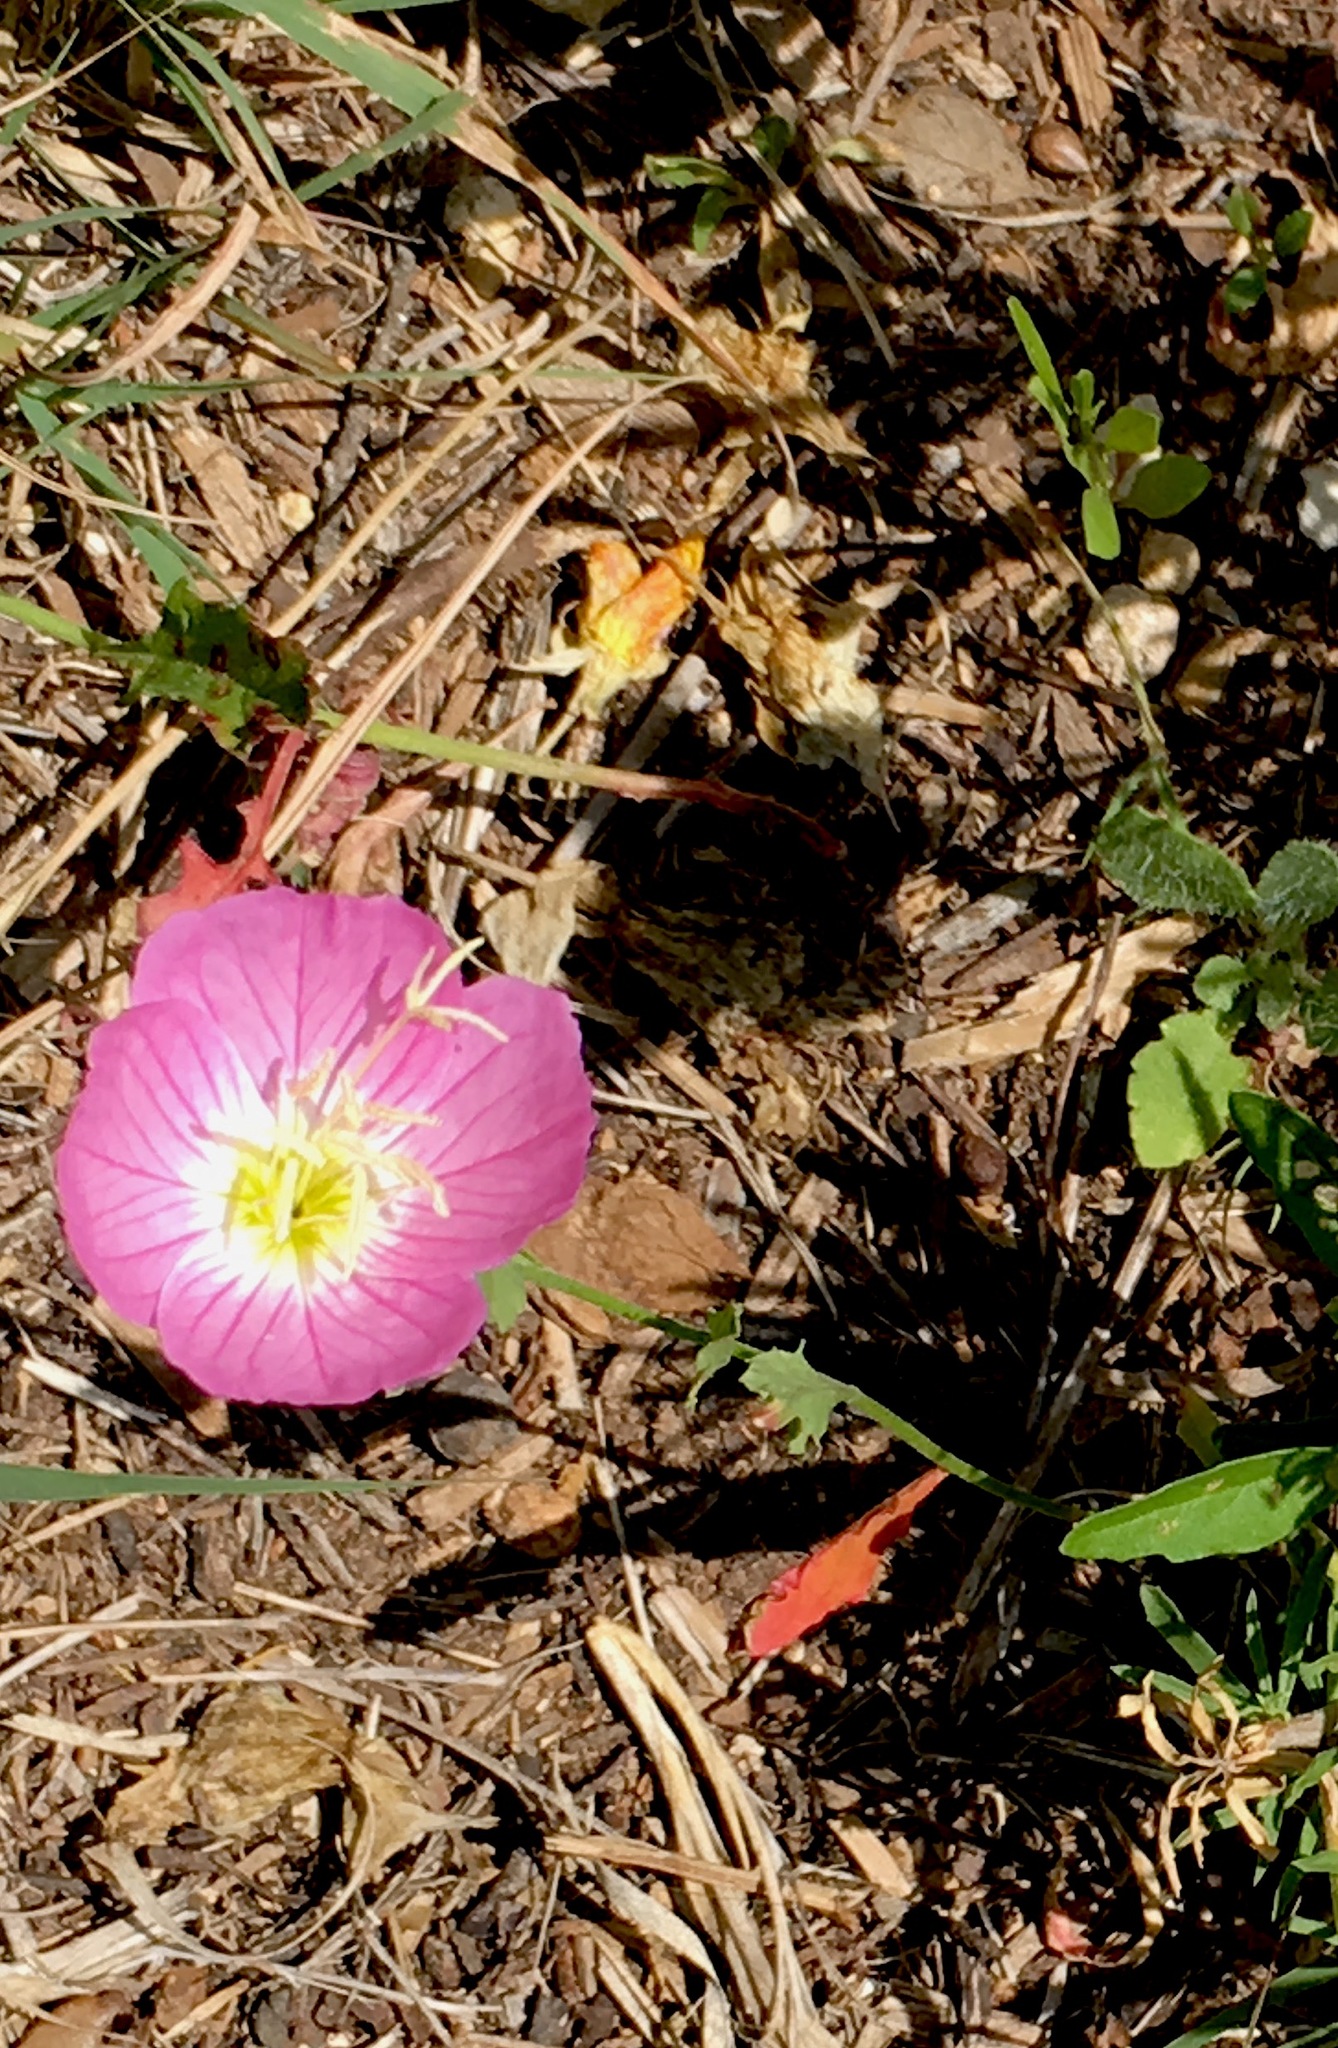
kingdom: Plantae
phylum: Tracheophyta
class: Magnoliopsida
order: Myrtales
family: Onagraceae
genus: Oenothera
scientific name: Oenothera speciosa
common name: White evening-primrose
